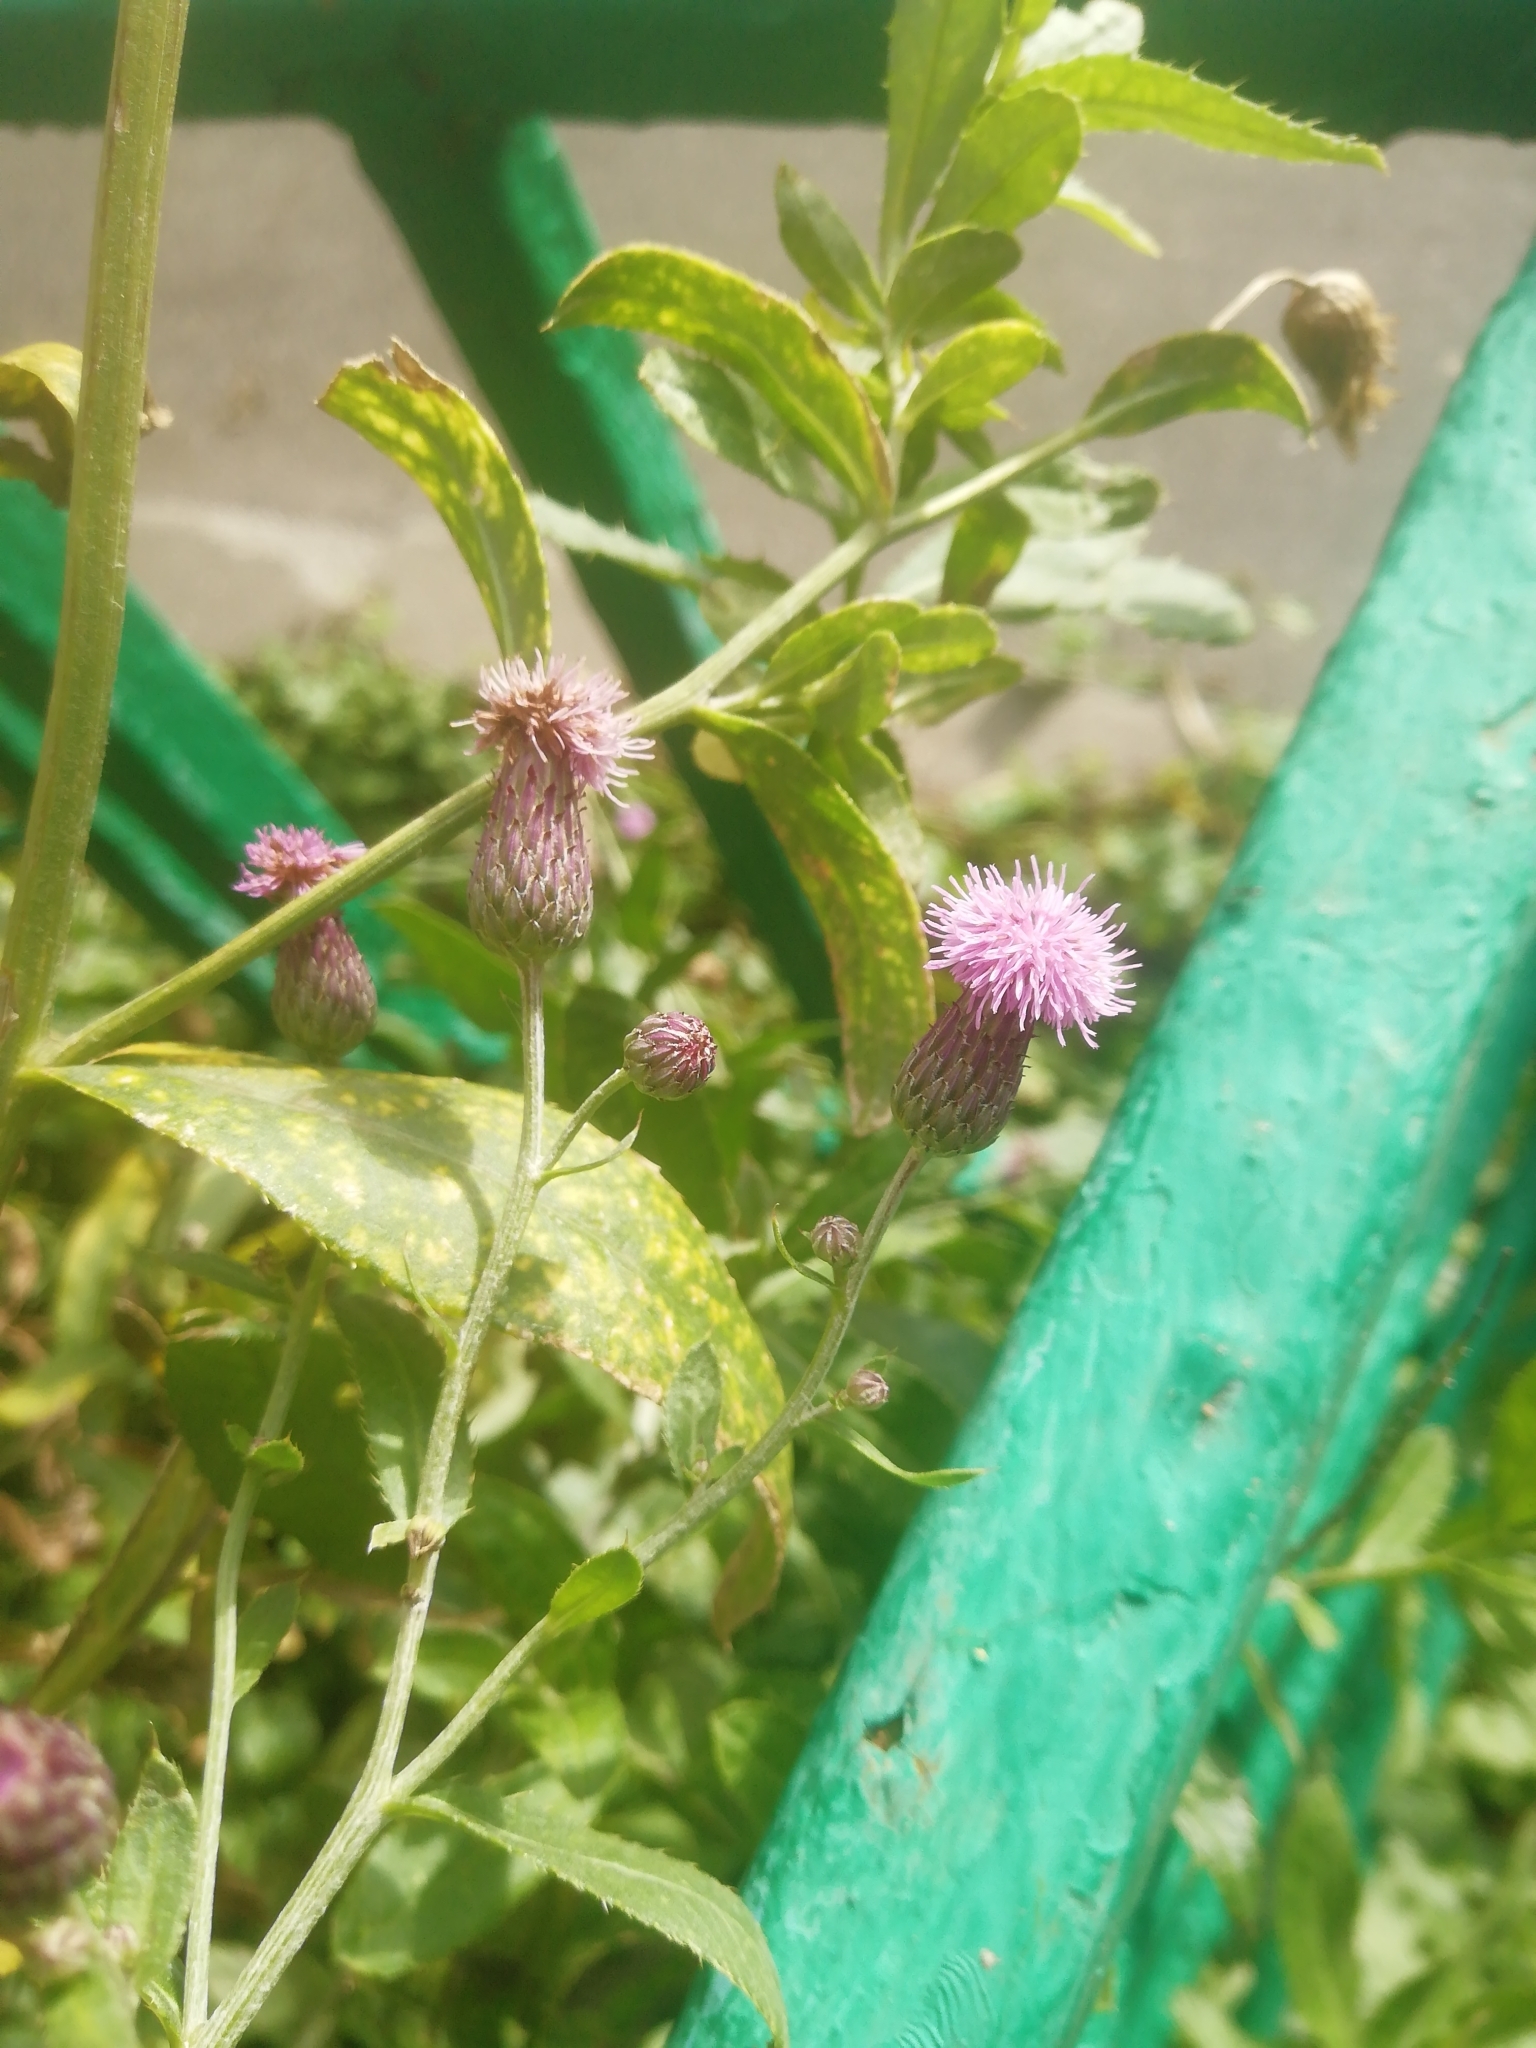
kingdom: Plantae
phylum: Tracheophyta
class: Magnoliopsida
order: Asterales
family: Asteraceae
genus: Cirsium
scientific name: Cirsium arvense
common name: Creeping thistle
